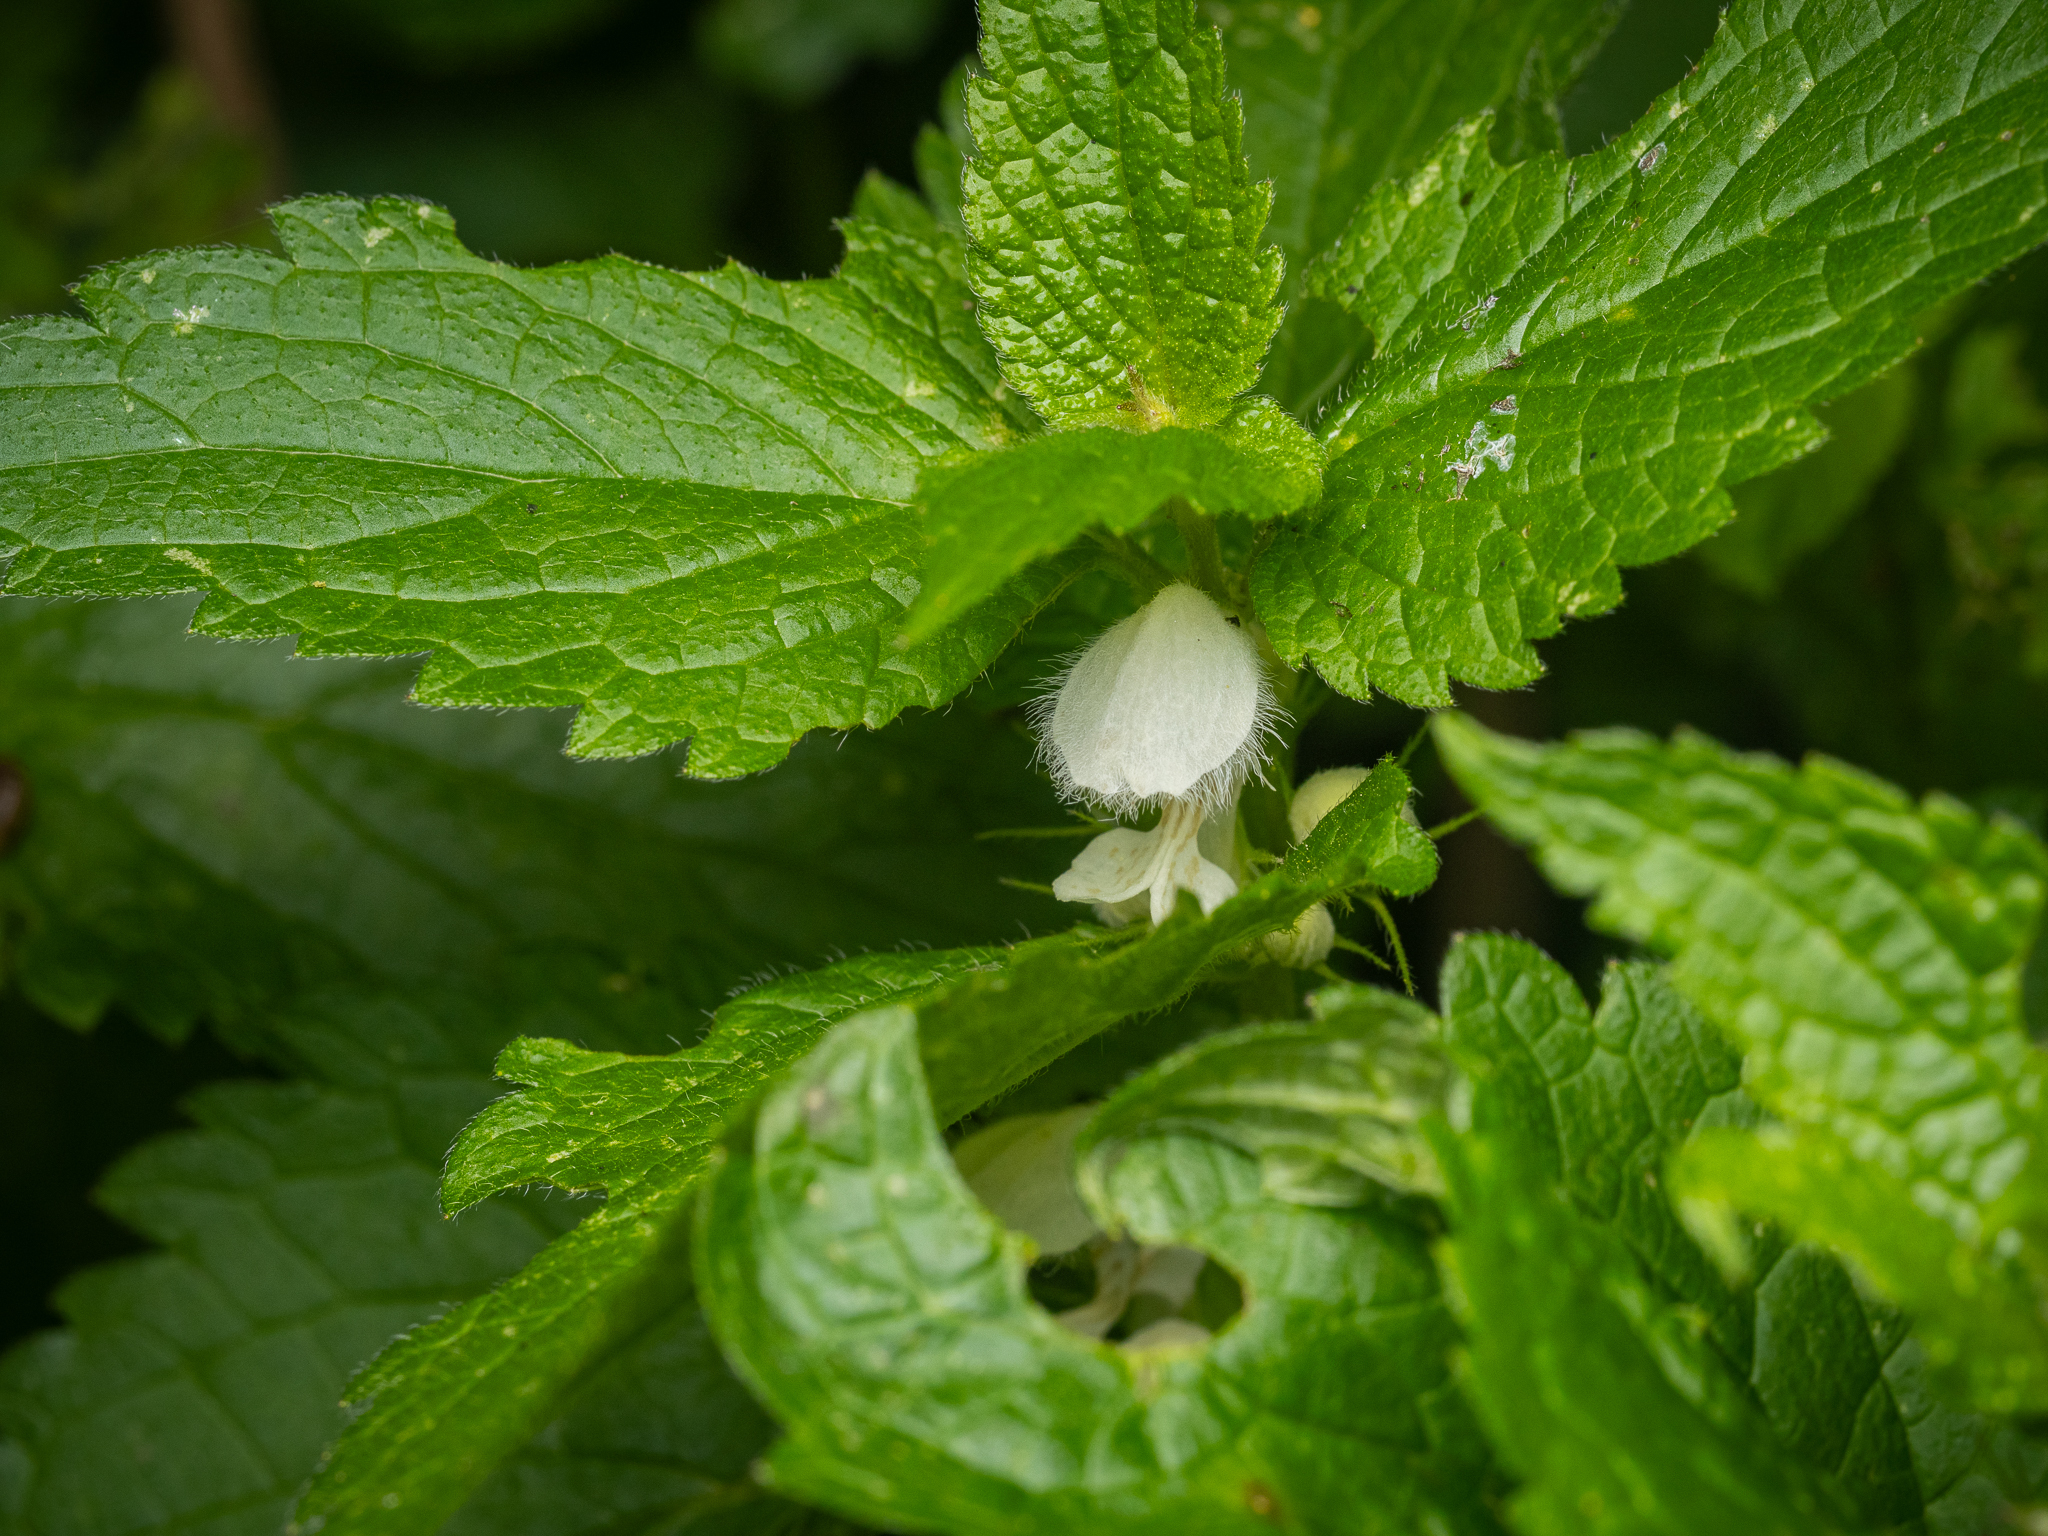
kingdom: Plantae
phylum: Tracheophyta
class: Magnoliopsida
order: Lamiales
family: Lamiaceae
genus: Lamium
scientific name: Lamium album
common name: White dead-nettle
